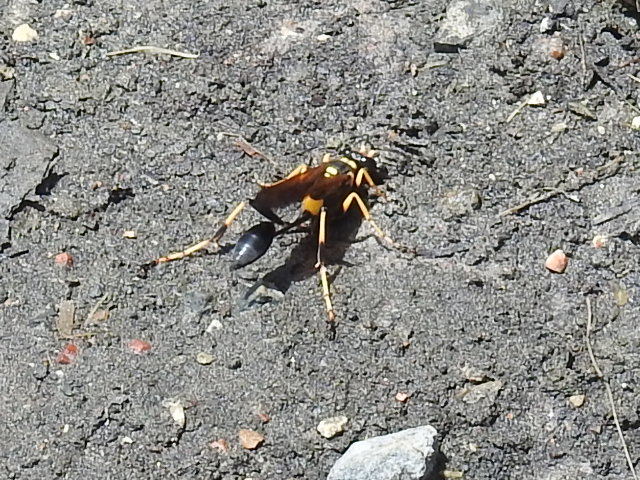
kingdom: Animalia
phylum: Arthropoda
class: Insecta
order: Hymenoptera
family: Sphecidae
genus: Sceliphron
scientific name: Sceliphron caementarium
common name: Mud dauber
